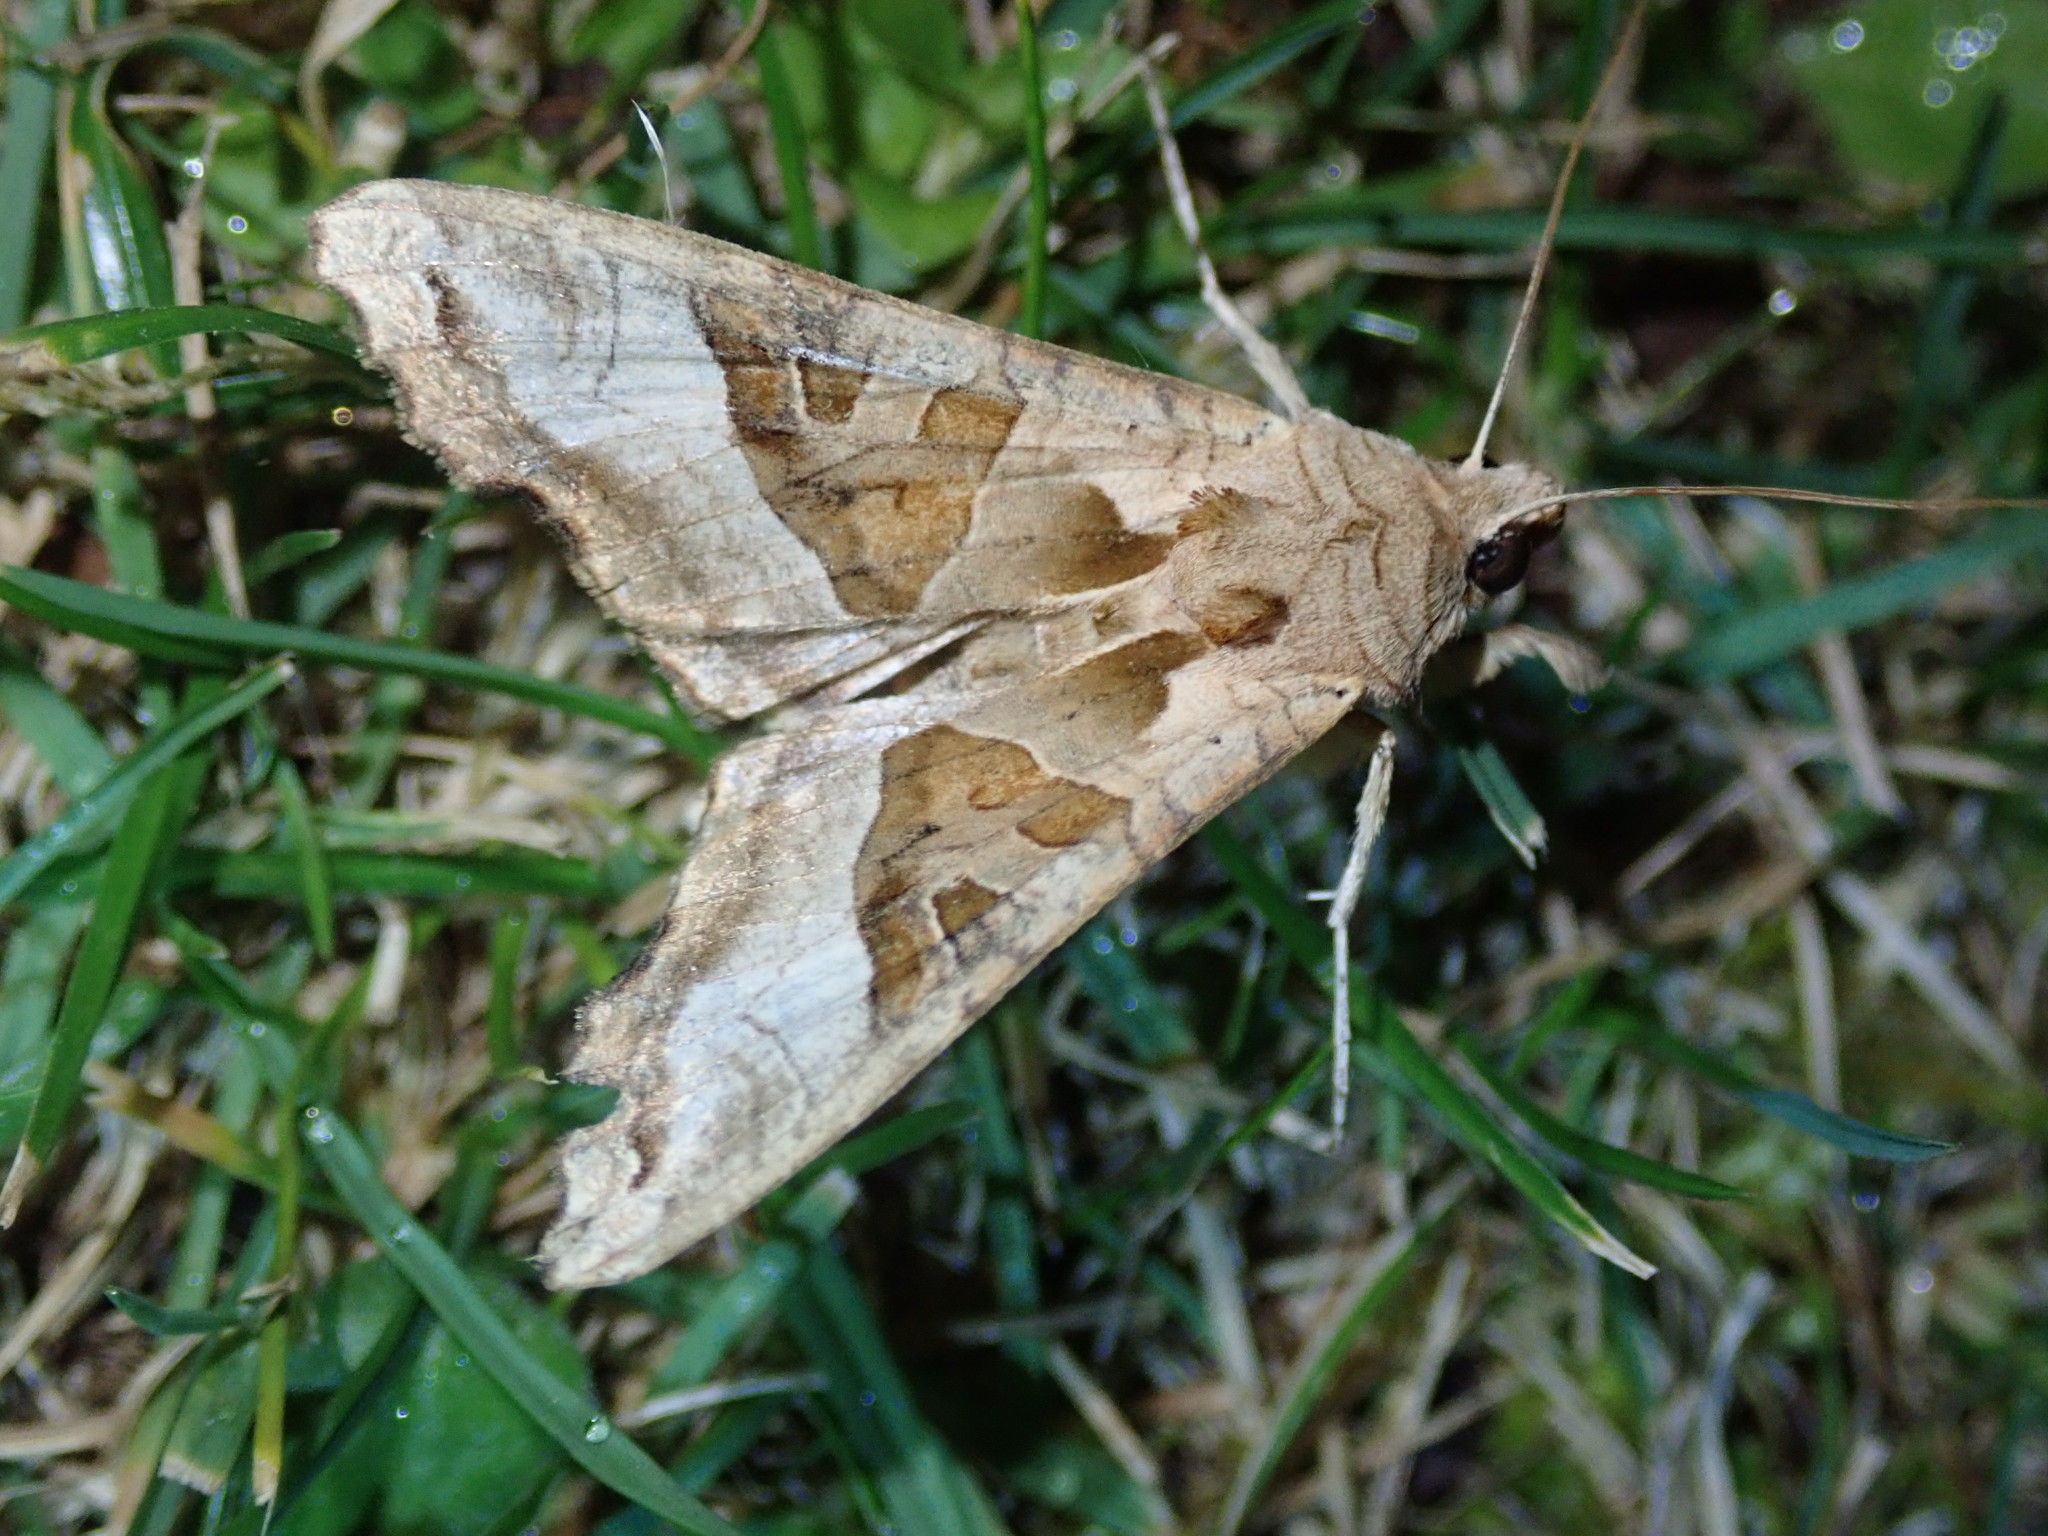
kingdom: Animalia
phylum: Arthropoda
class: Insecta
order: Lepidoptera
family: Noctuidae
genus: Phlogophora
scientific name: Phlogophora meticulosa
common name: Angle shades
